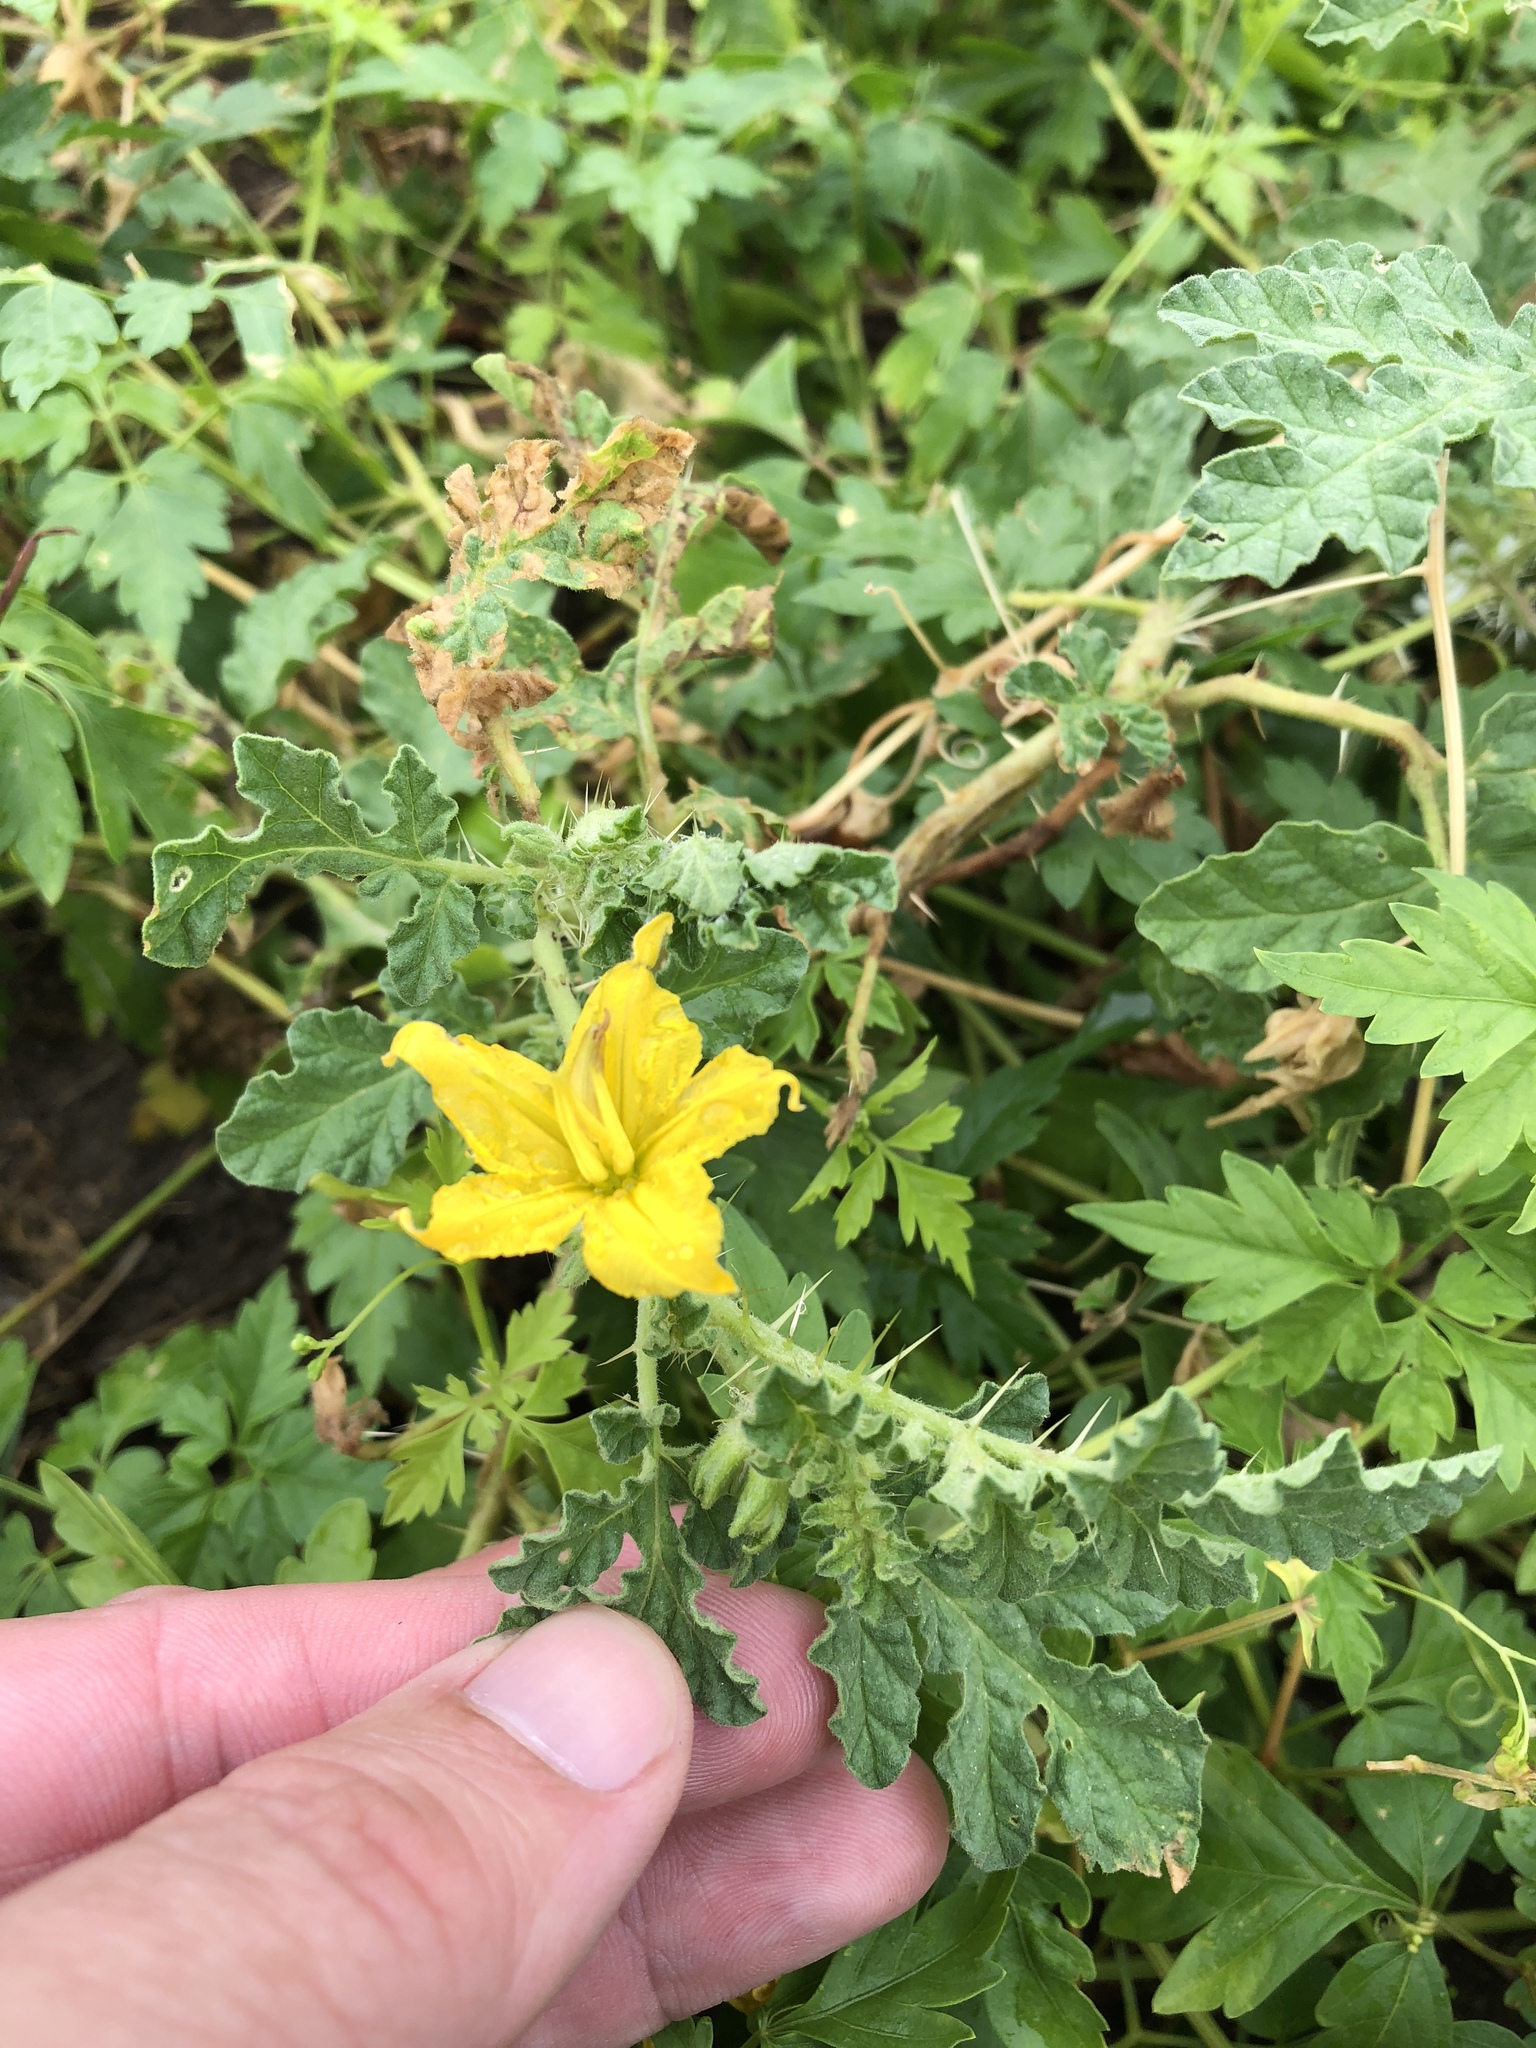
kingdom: Plantae
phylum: Tracheophyta
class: Magnoliopsida
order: Solanales
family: Solanaceae
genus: Solanum
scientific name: Solanum angustifolium
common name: Buffalobur nightshade
